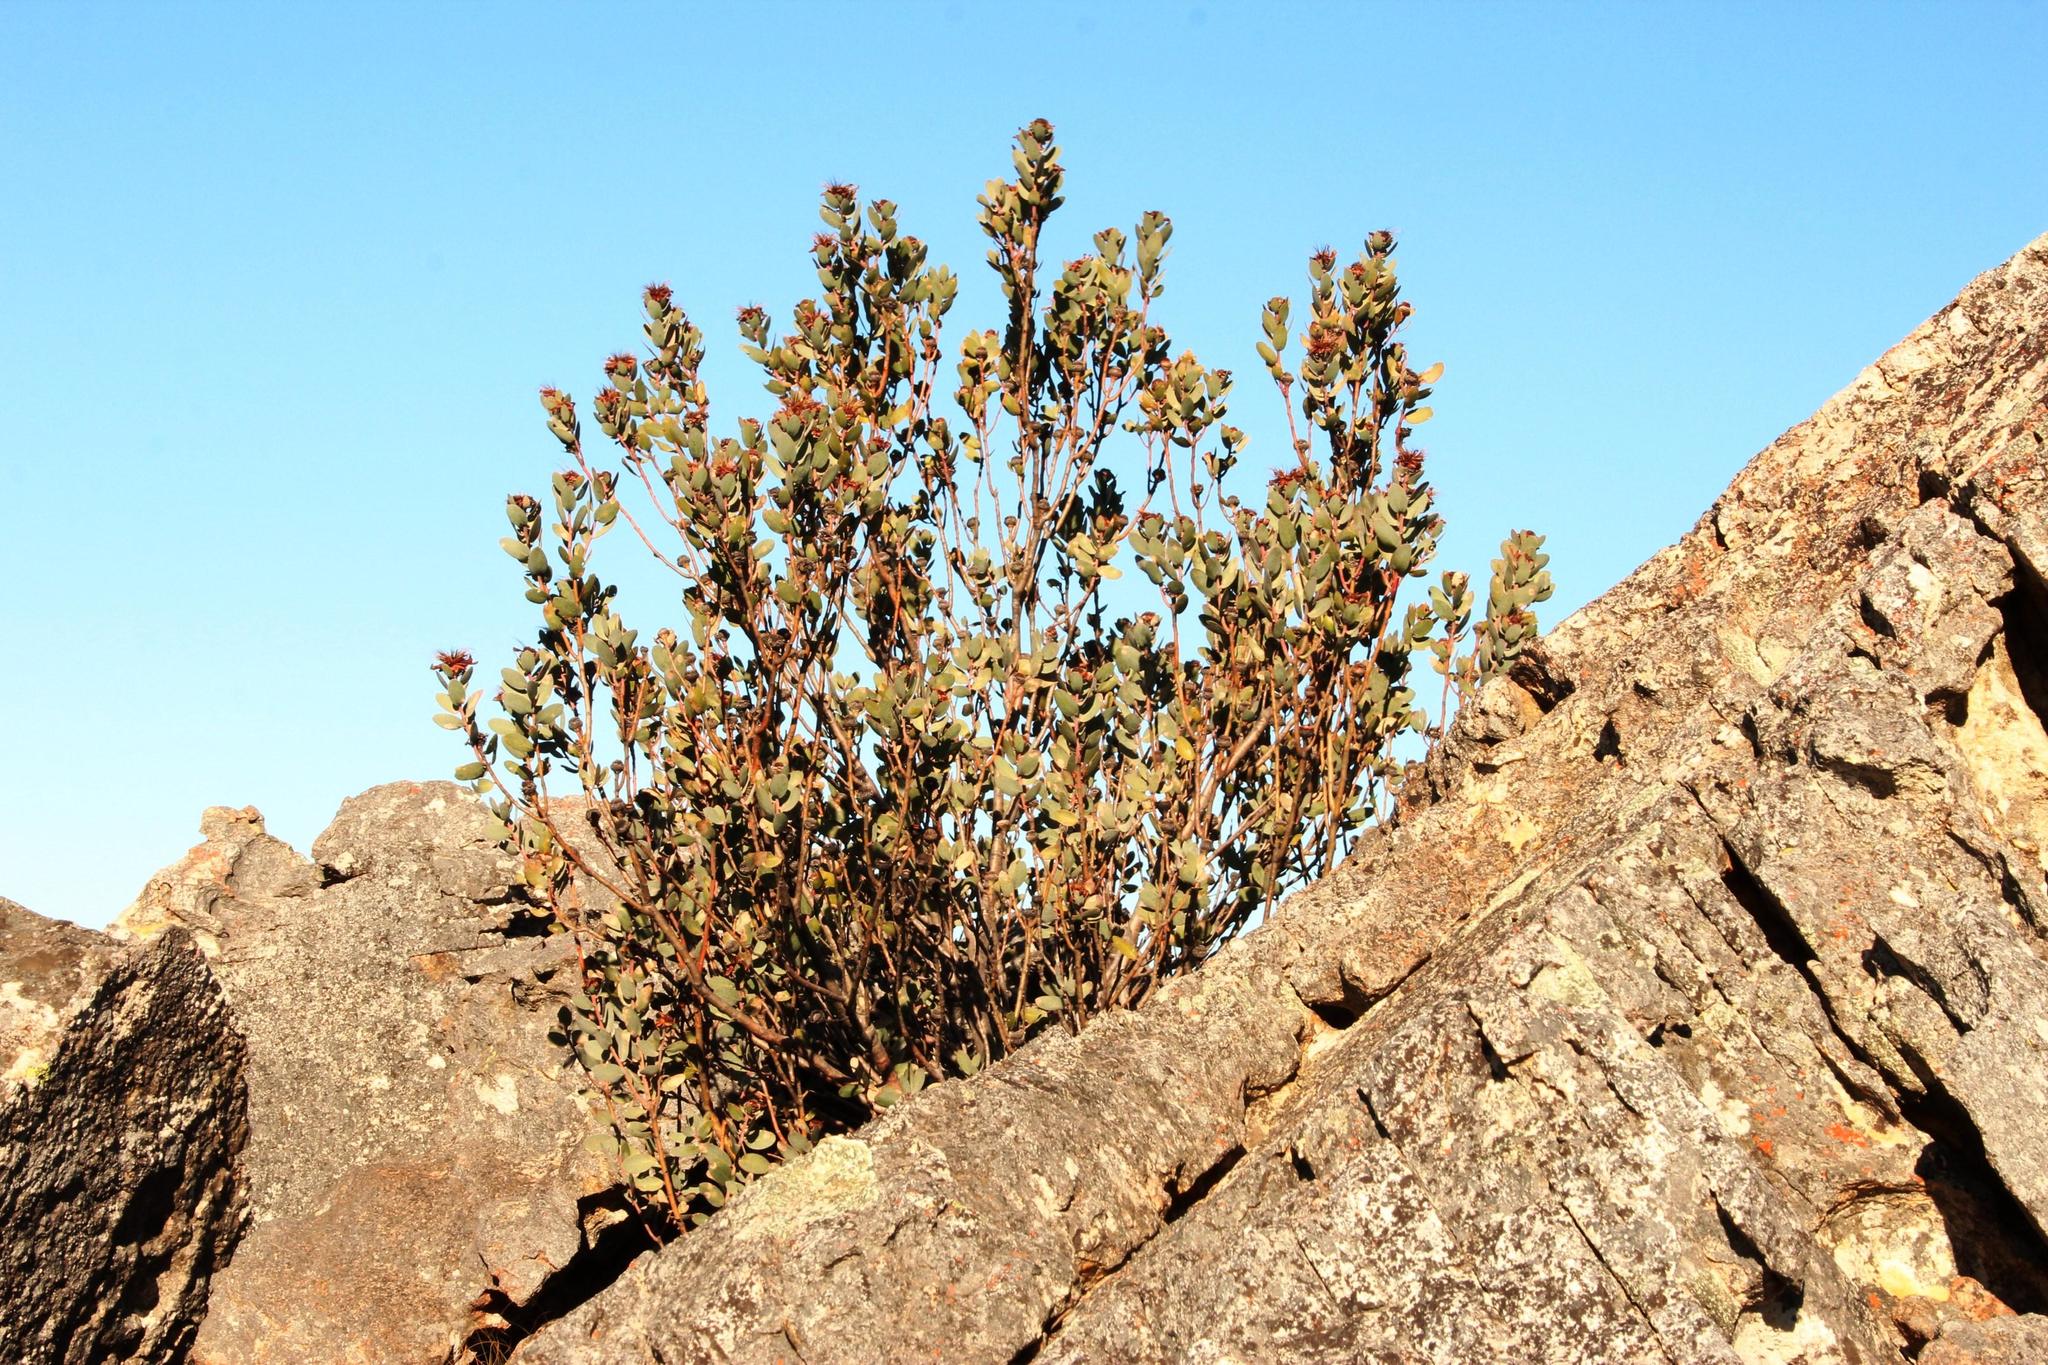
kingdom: Plantae
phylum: Tracheophyta
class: Magnoliopsida
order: Proteales
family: Proteaceae
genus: Protea
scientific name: Protea punctata
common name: Water sugarbush
